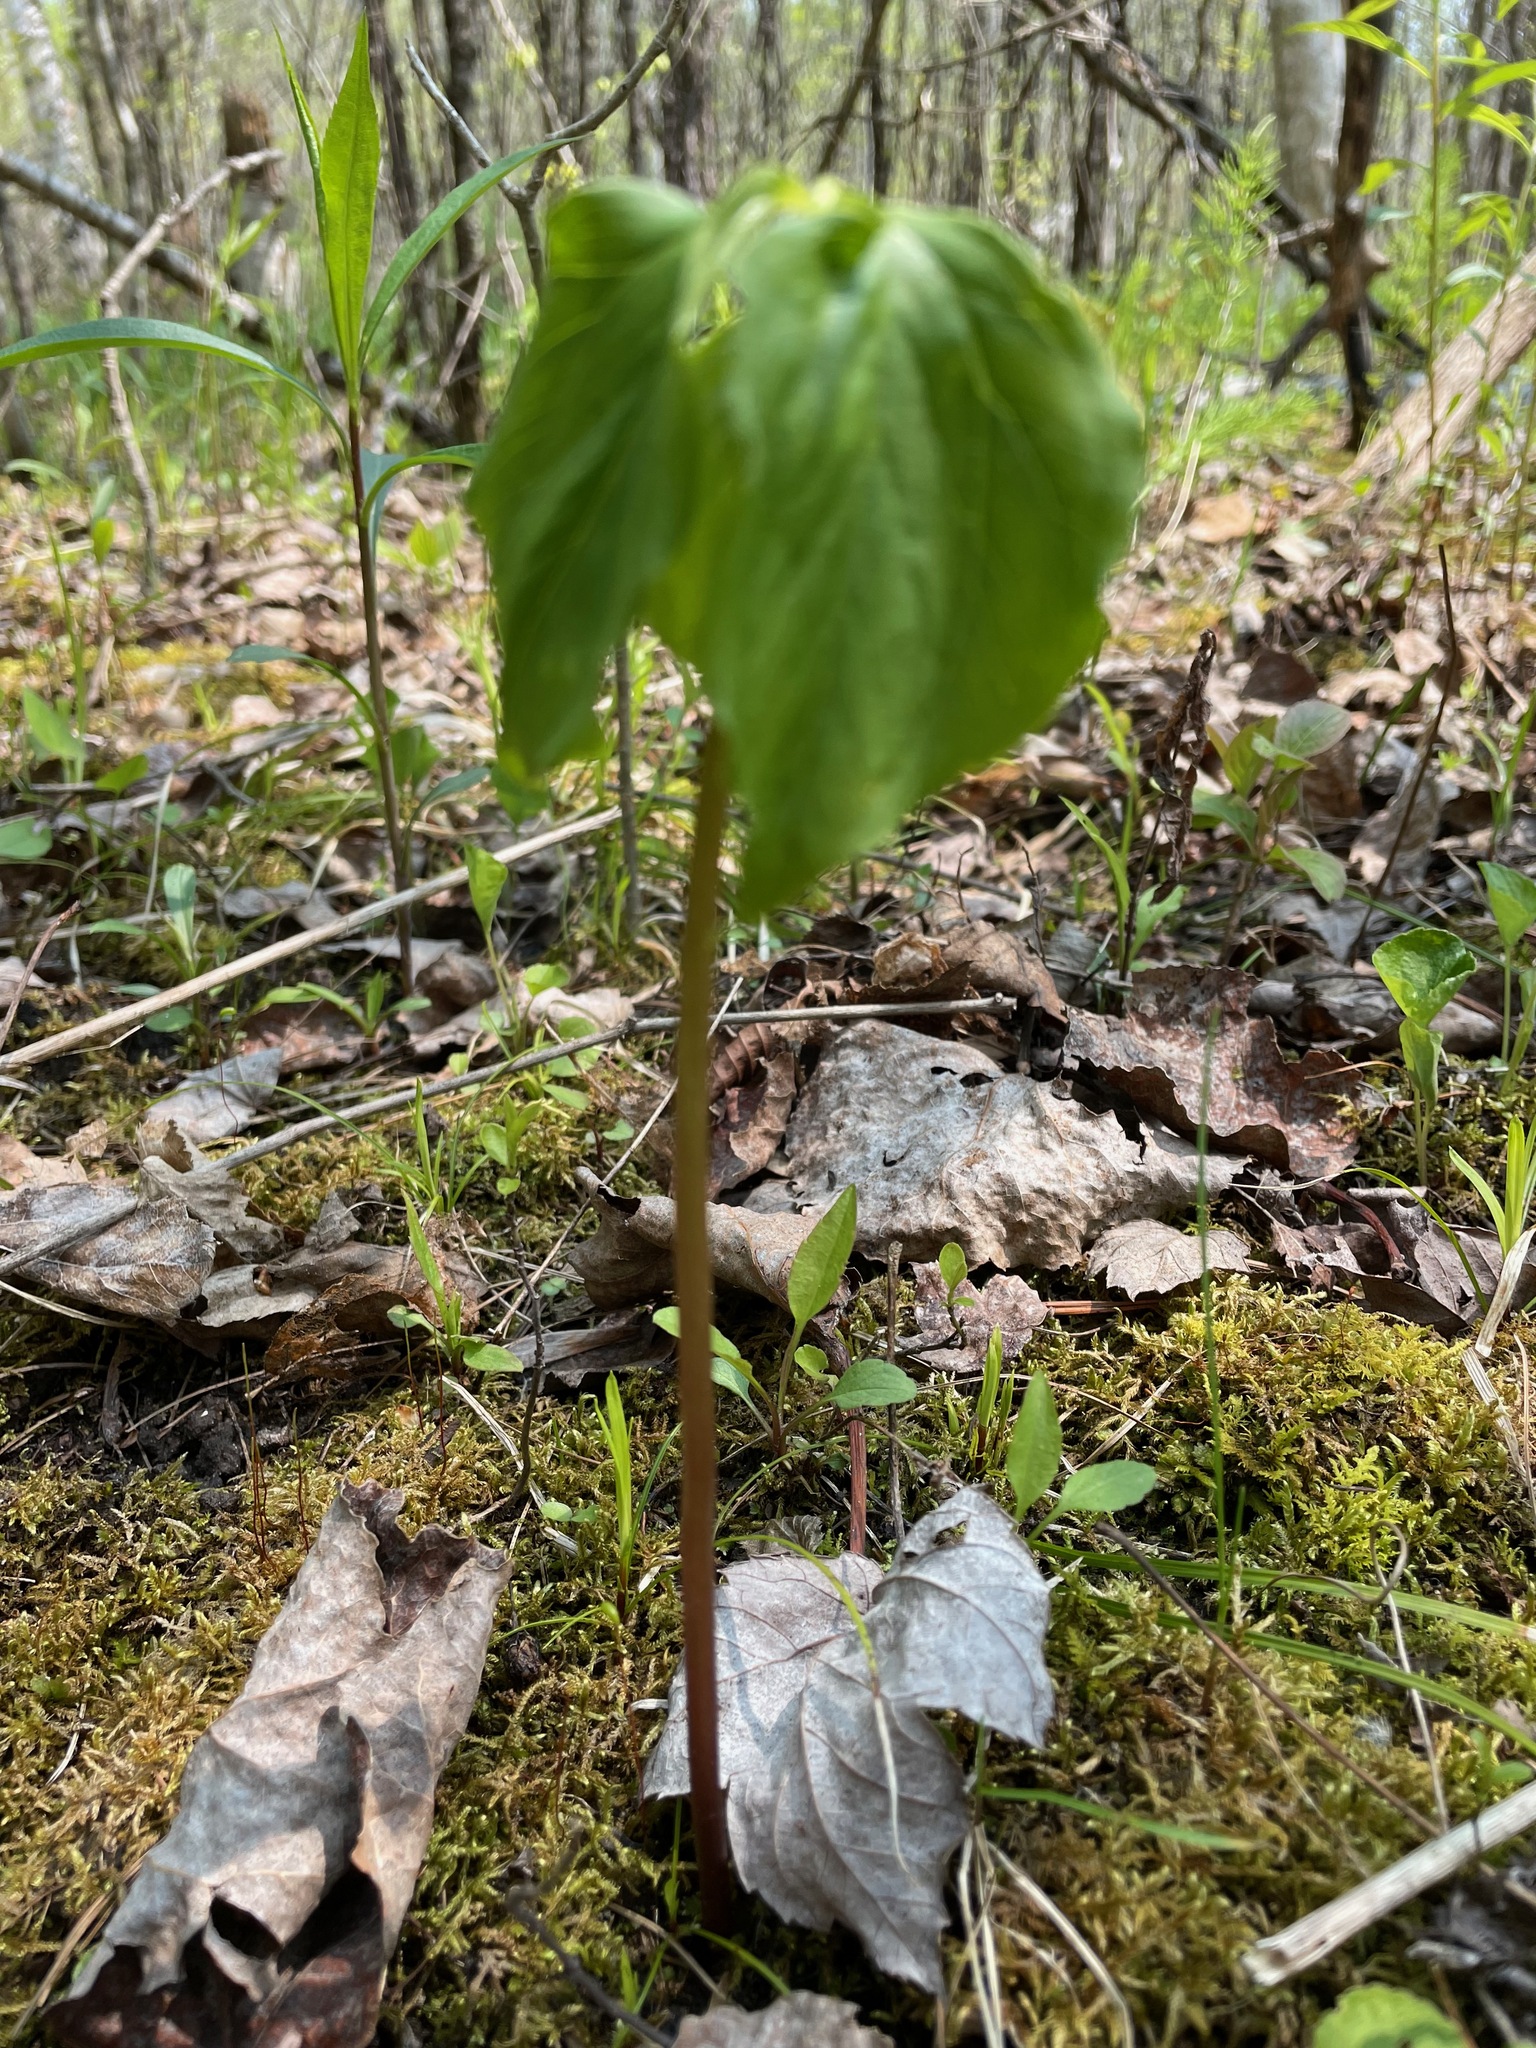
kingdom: Plantae
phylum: Tracheophyta
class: Liliopsida
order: Liliales
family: Melanthiaceae
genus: Trillium
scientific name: Trillium cernuum
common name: Nodding trillium
